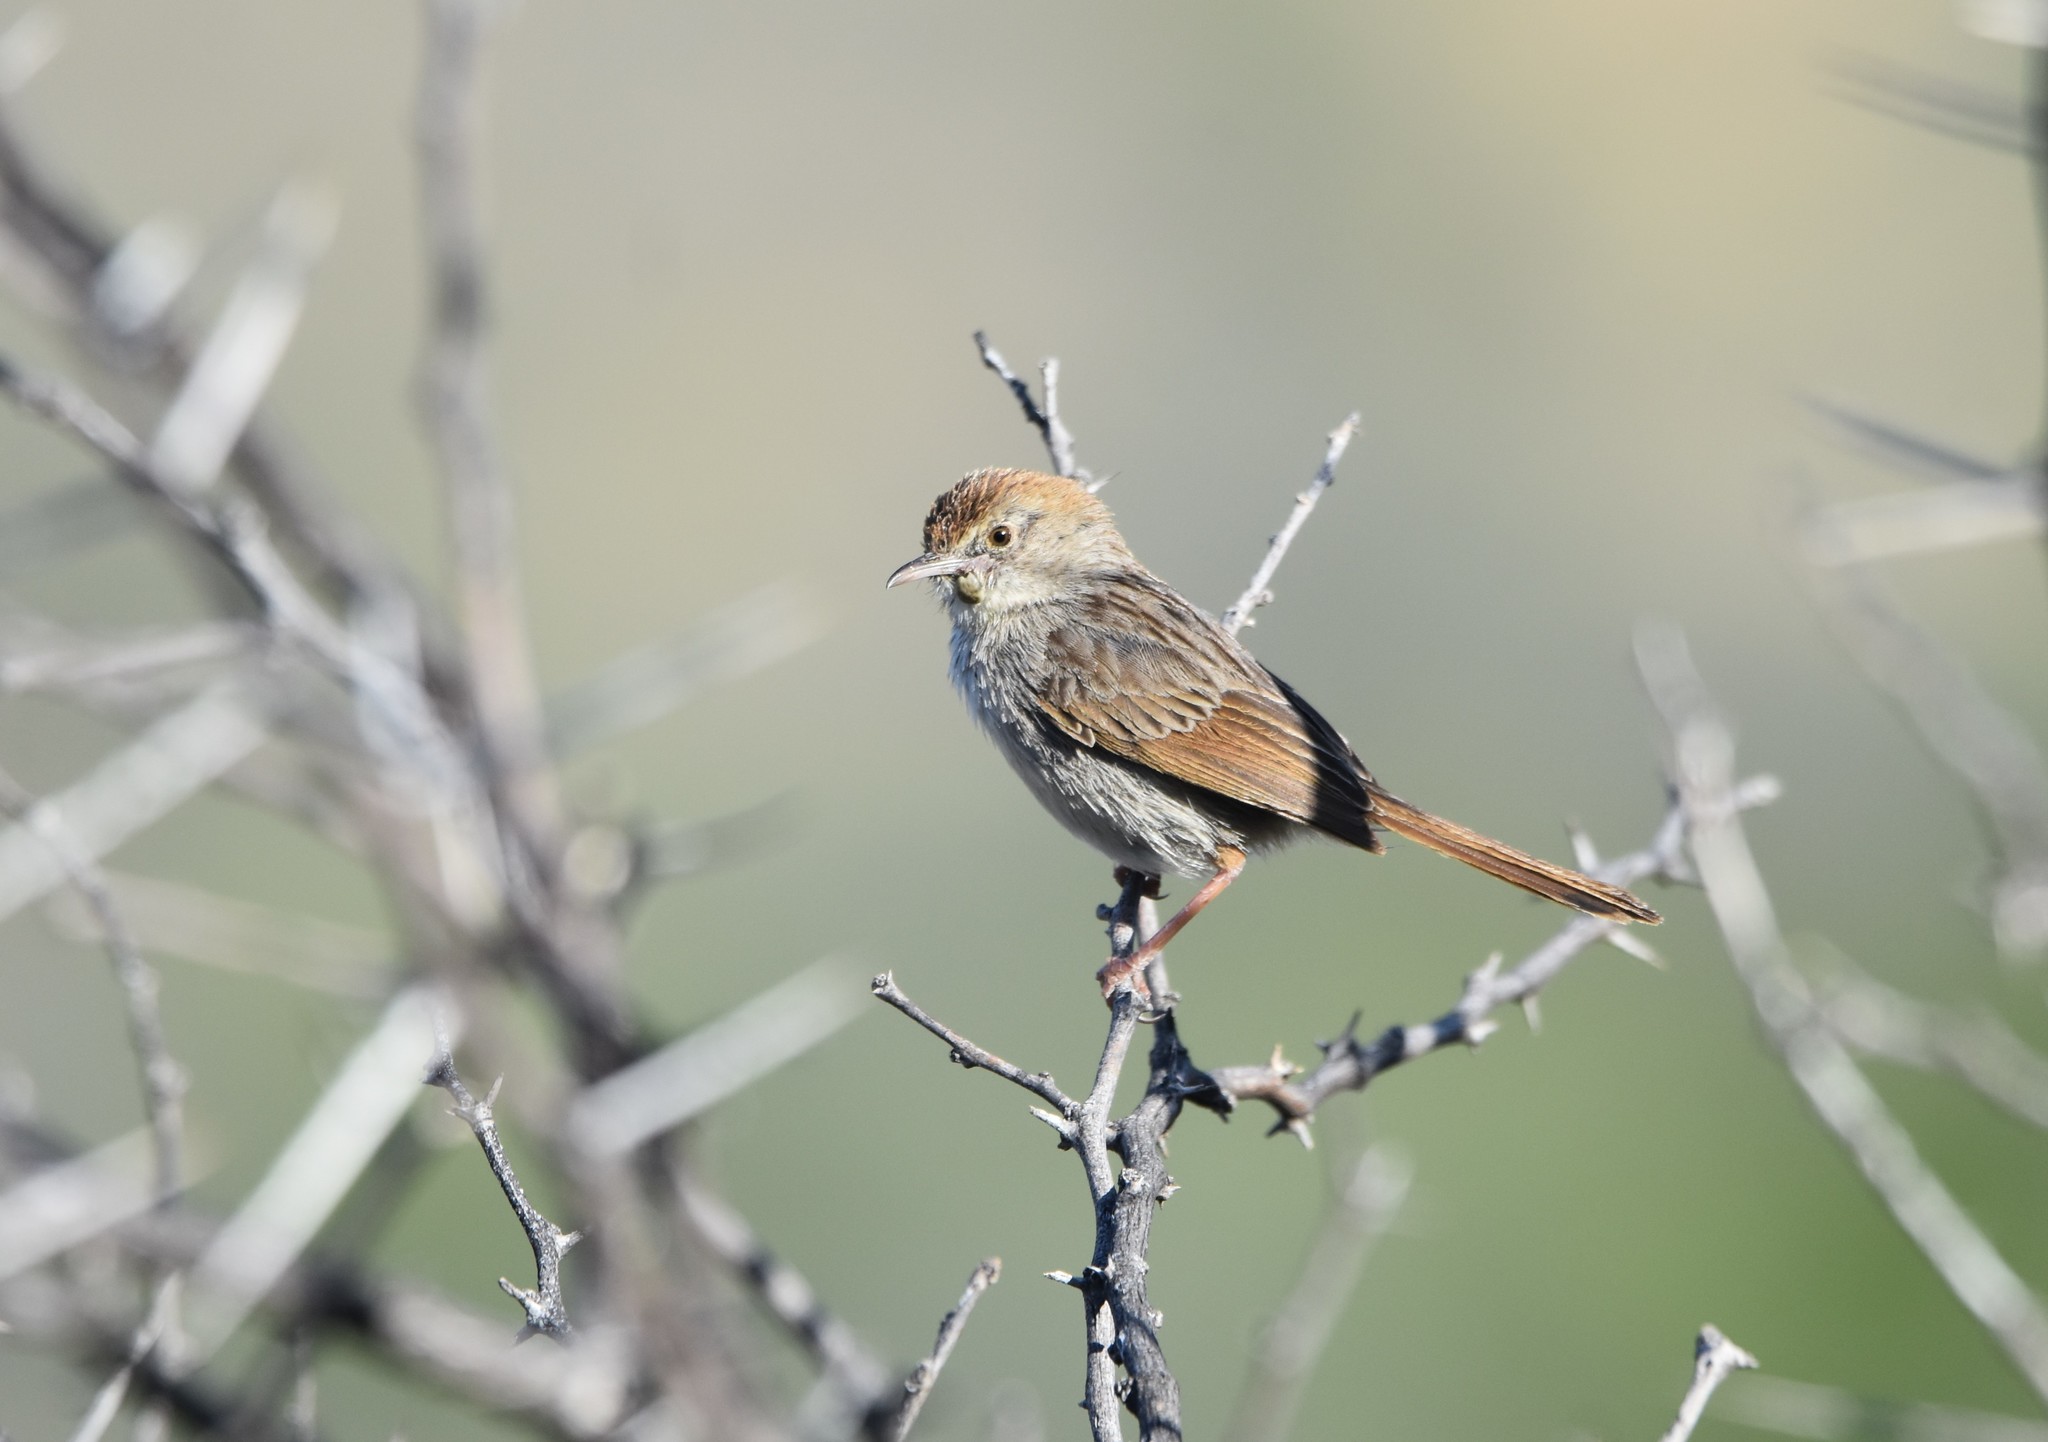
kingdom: Animalia
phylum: Chordata
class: Aves
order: Passeriformes
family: Cisticolidae
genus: Cisticola
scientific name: Cisticola subruficapilla
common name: Grey-backed cisticola
